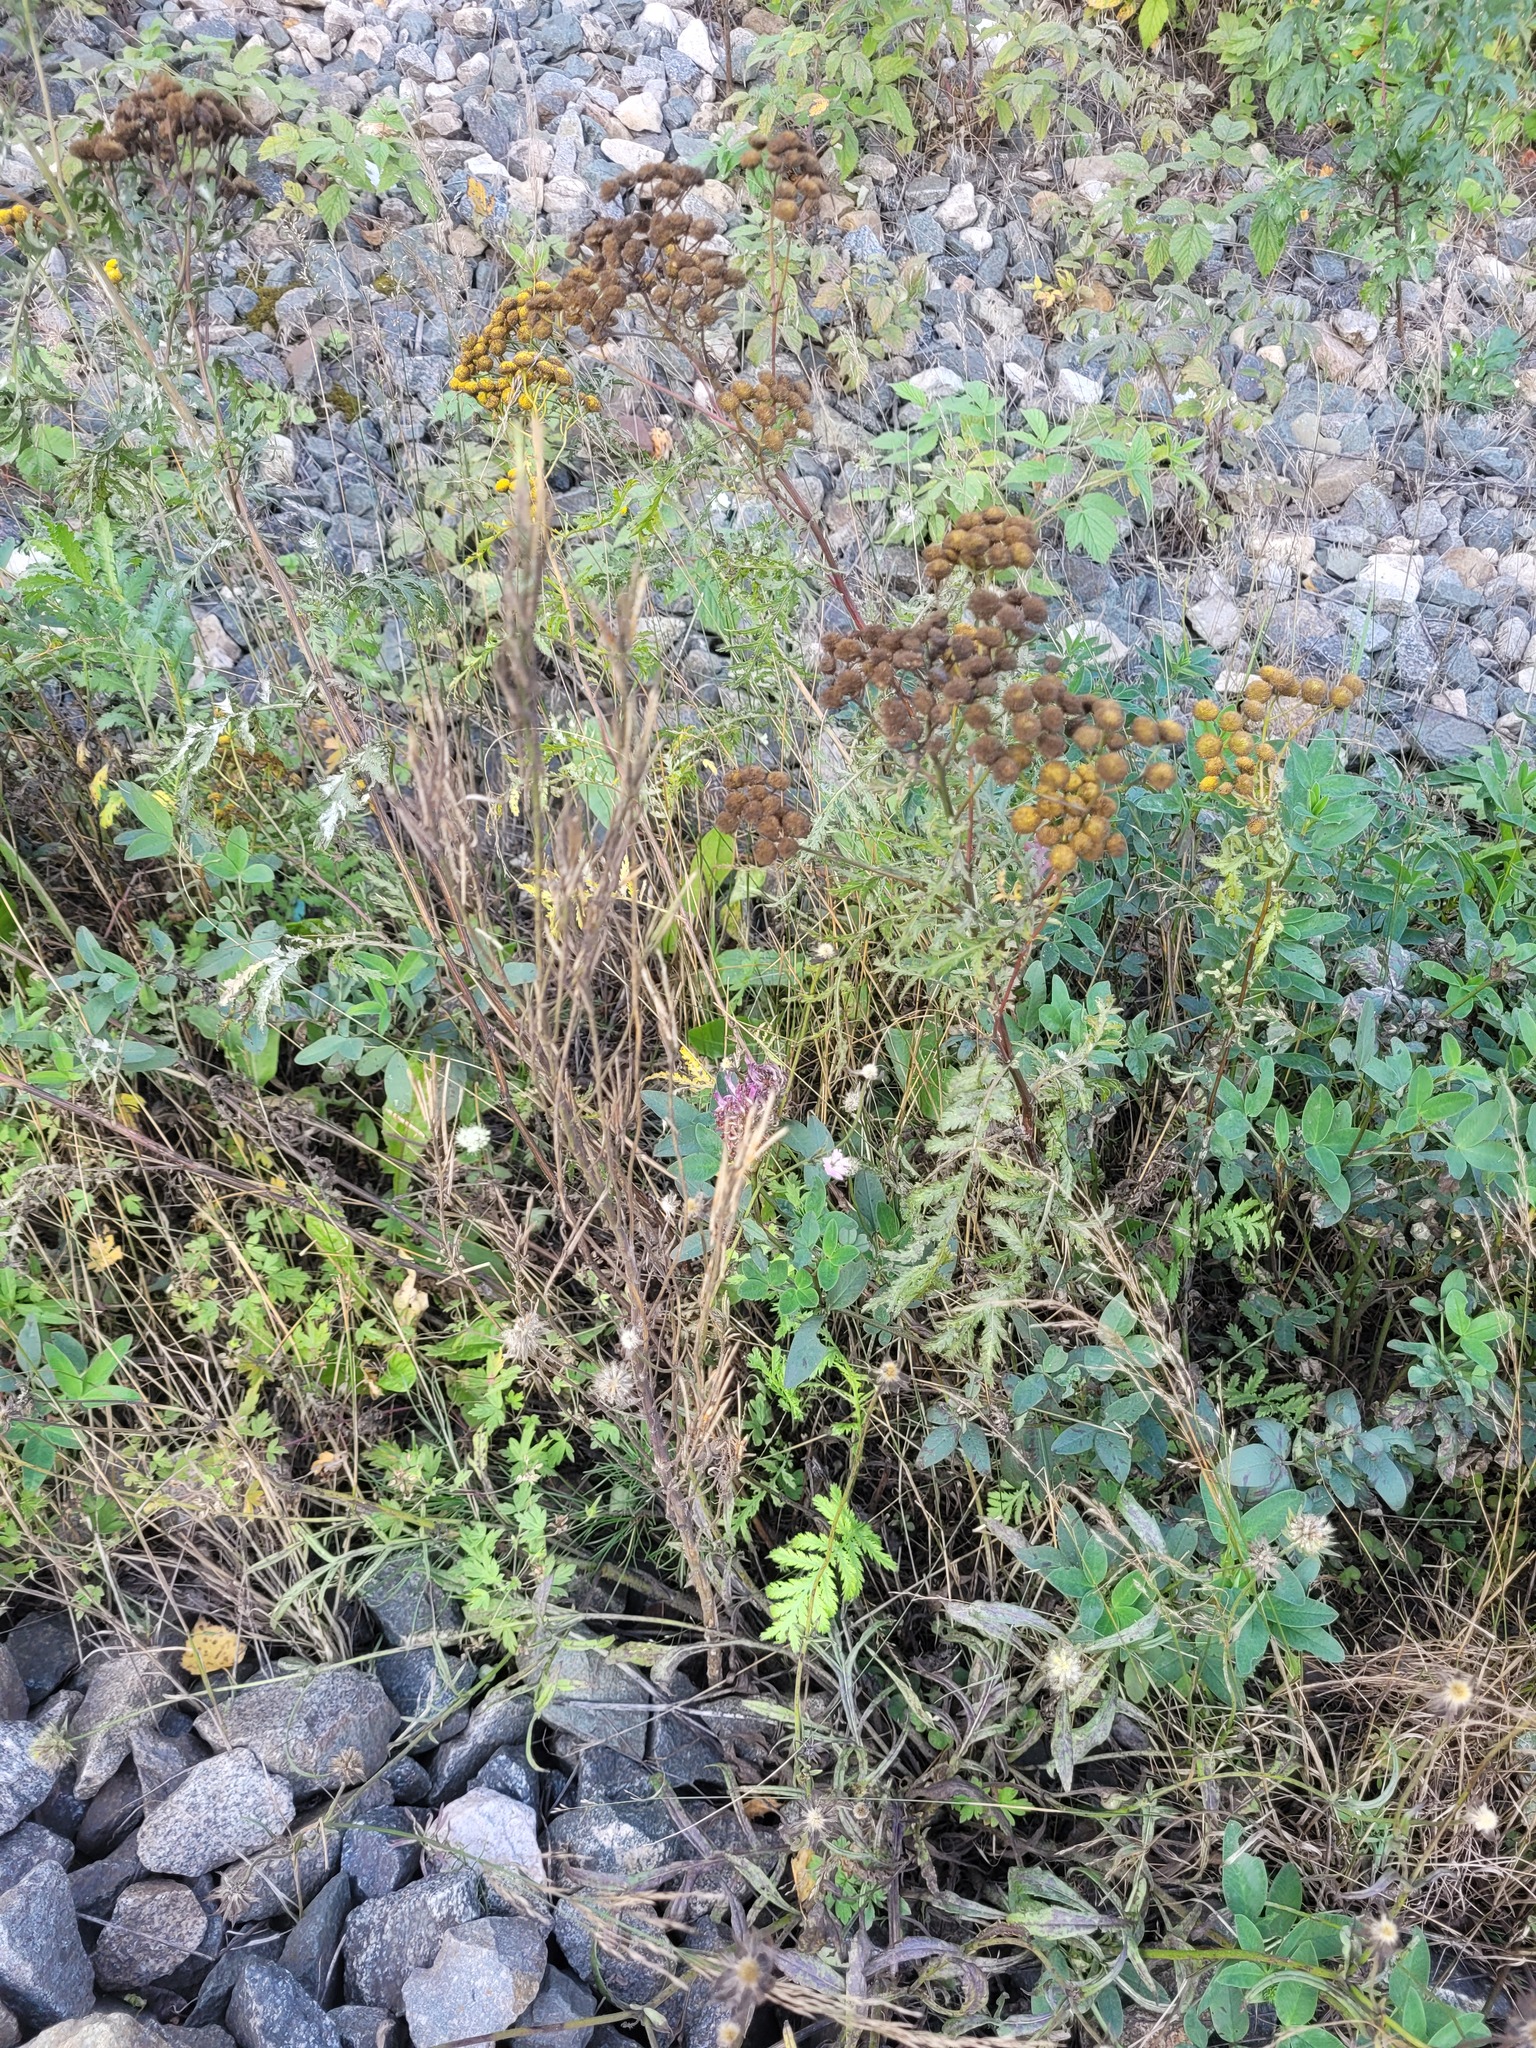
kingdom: Plantae
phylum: Tracheophyta
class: Magnoliopsida
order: Asterales
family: Asteraceae
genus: Tanacetum
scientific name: Tanacetum vulgare
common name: Common tansy
